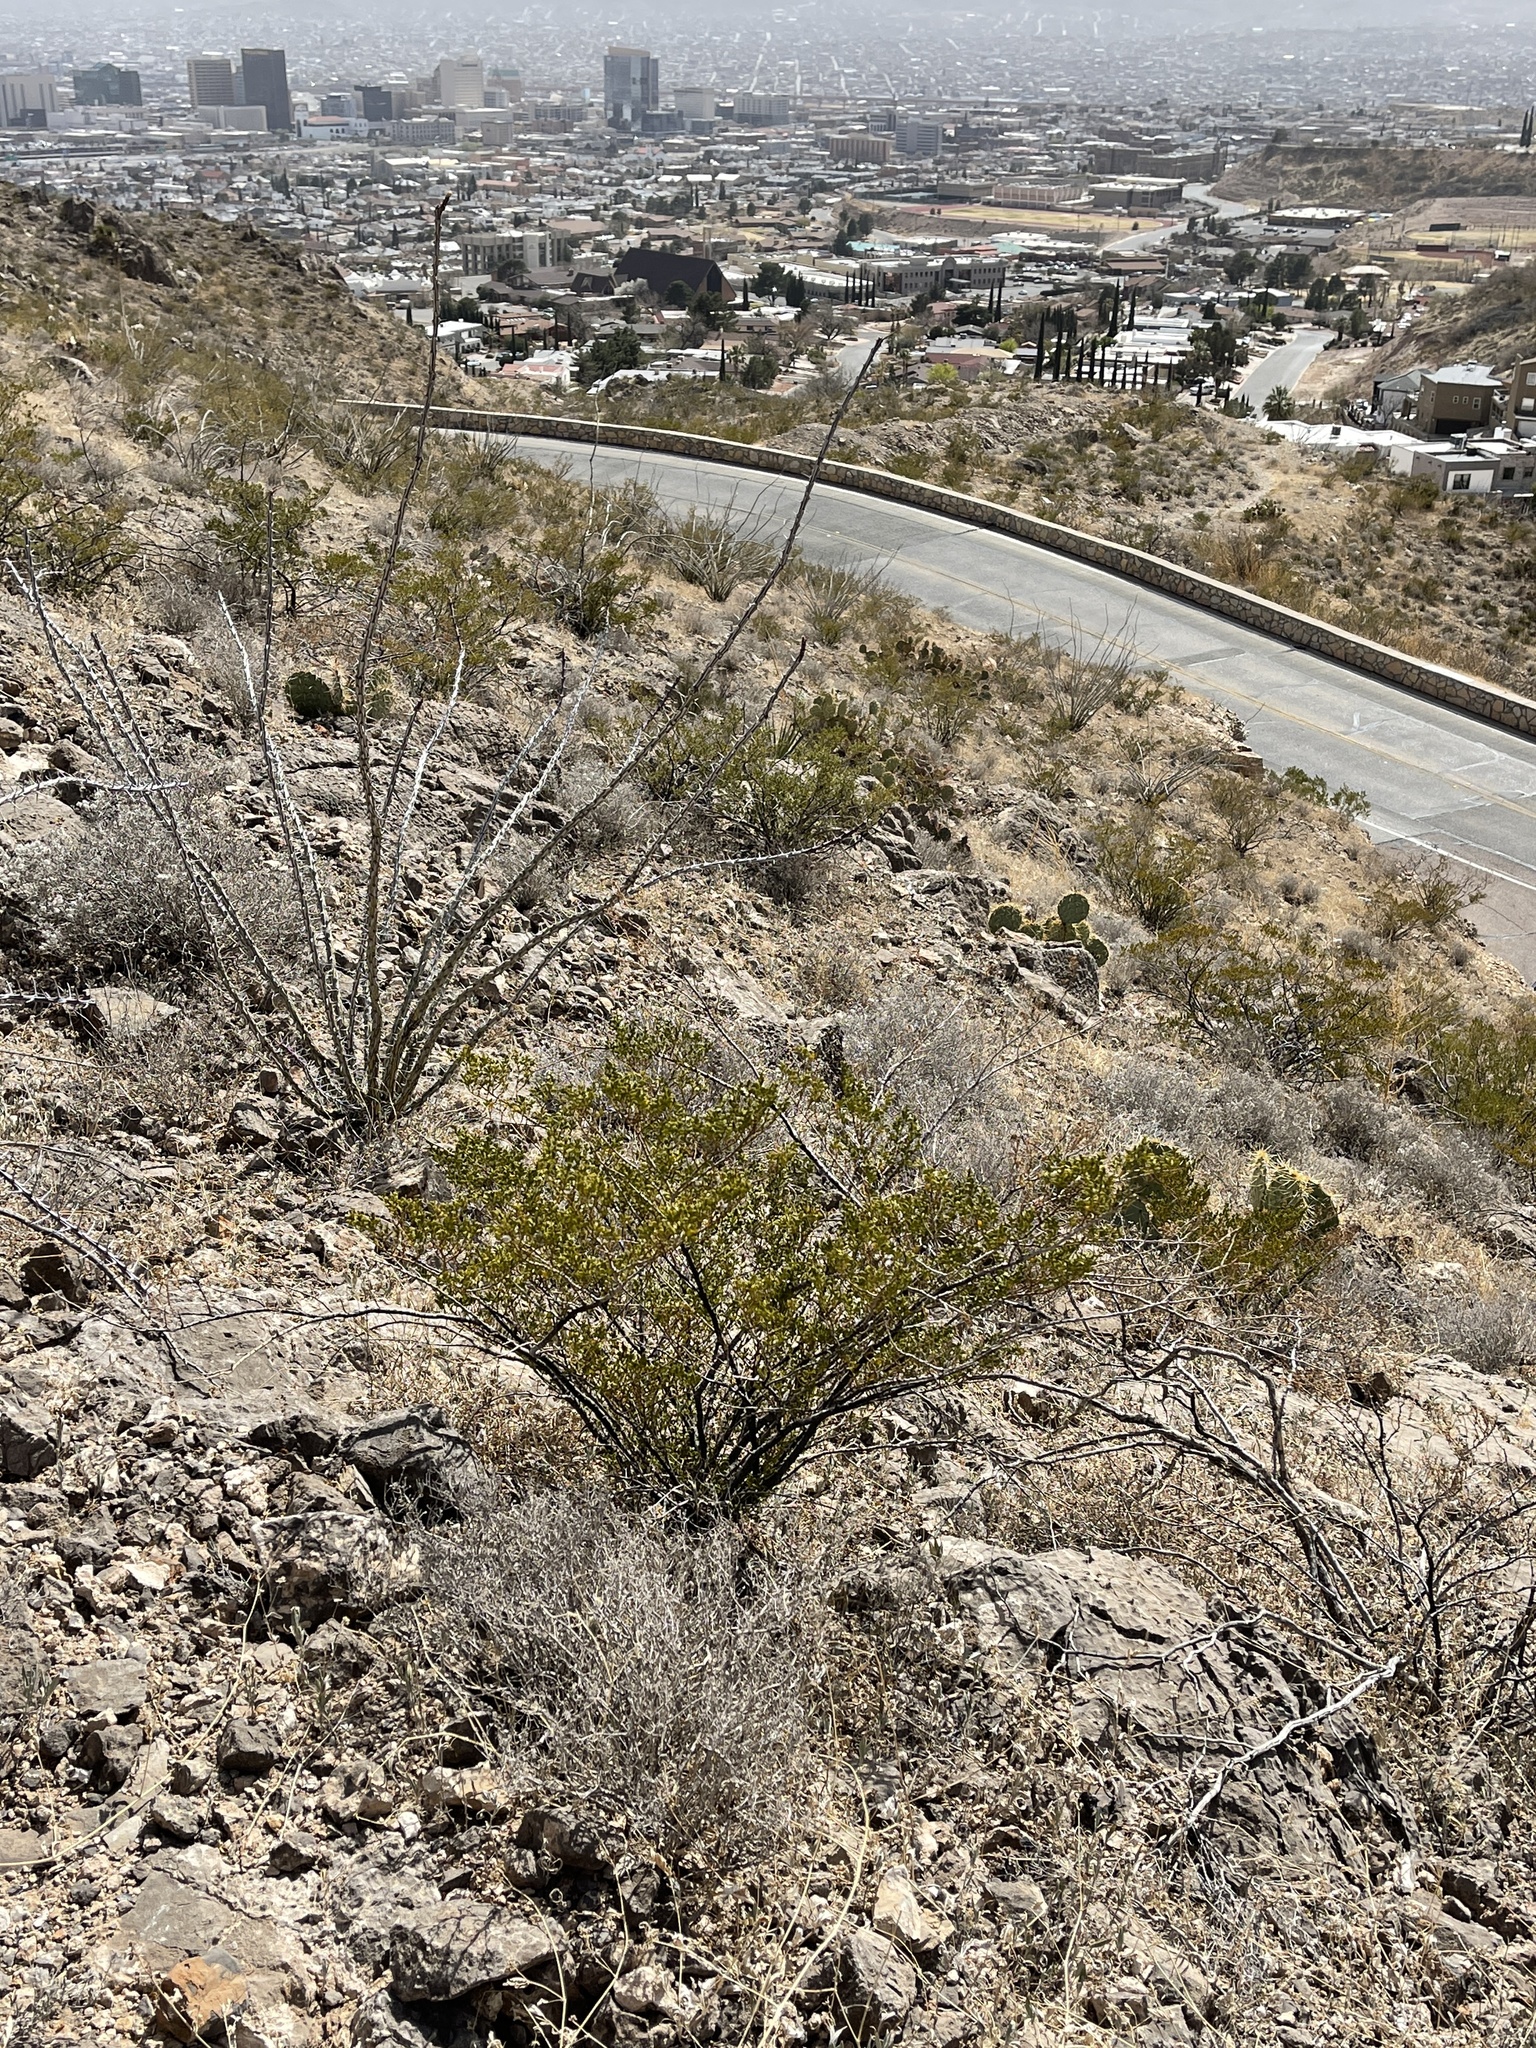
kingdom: Plantae
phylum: Tracheophyta
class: Magnoliopsida
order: Zygophyllales
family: Zygophyllaceae
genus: Larrea
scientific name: Larrea tridentata
